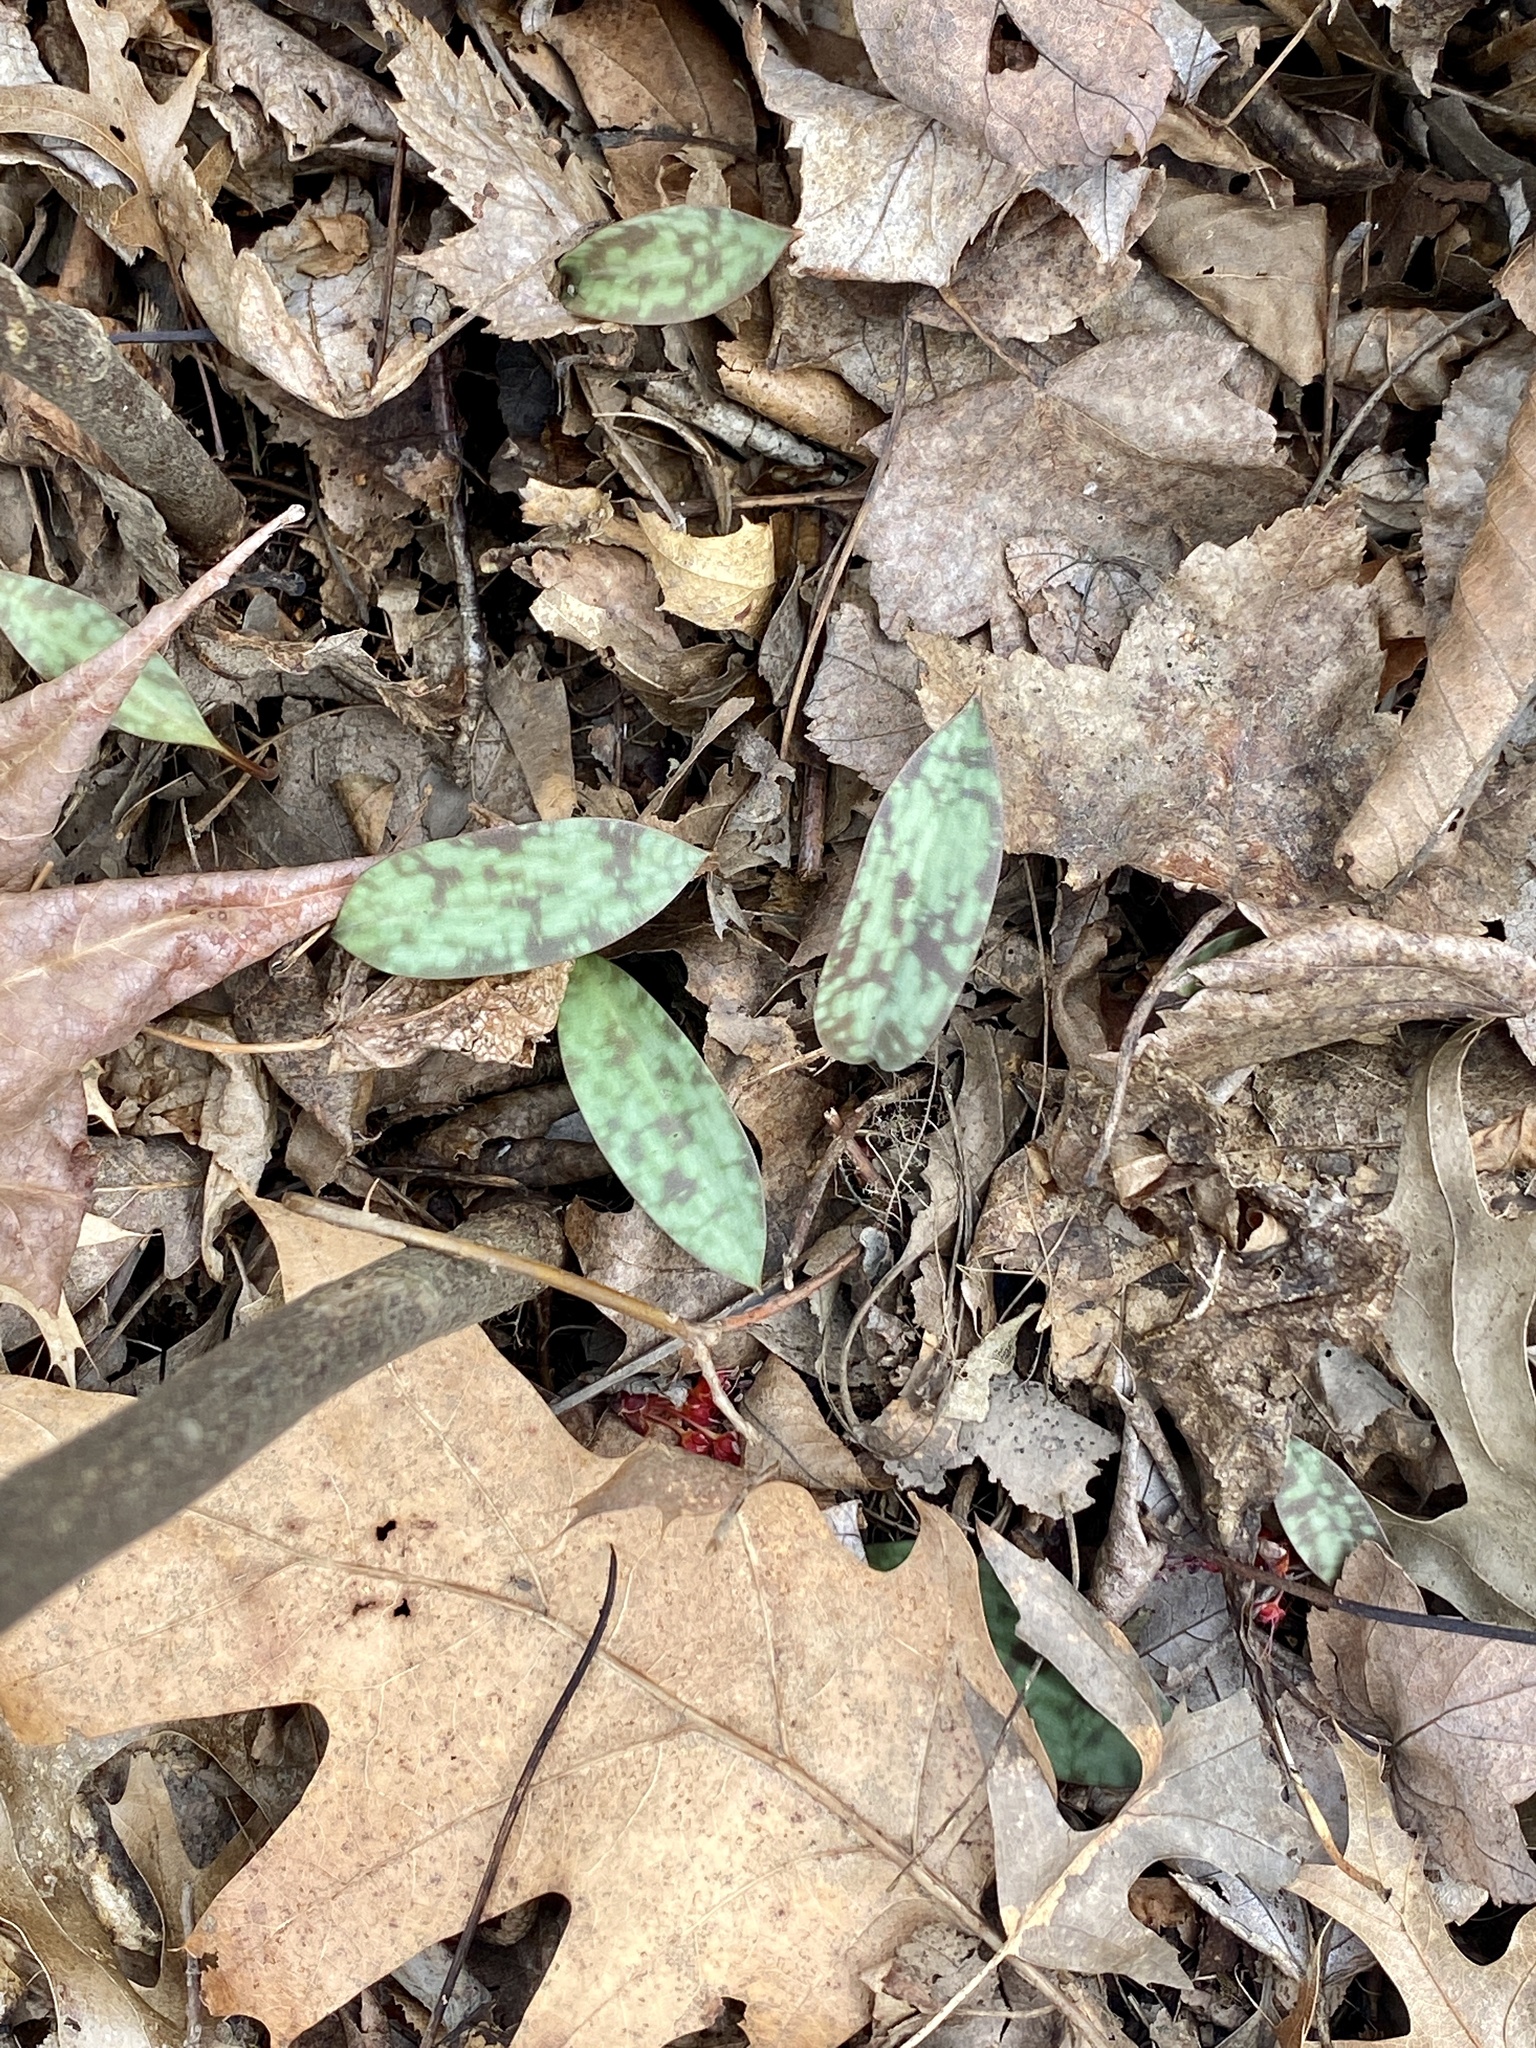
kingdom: Plantae
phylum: Tracheophyta
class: Liliopsida
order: Liliales
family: Liliaceae
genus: Erythronium
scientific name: Erythronium americanum
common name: Yellow adder's-tongue
